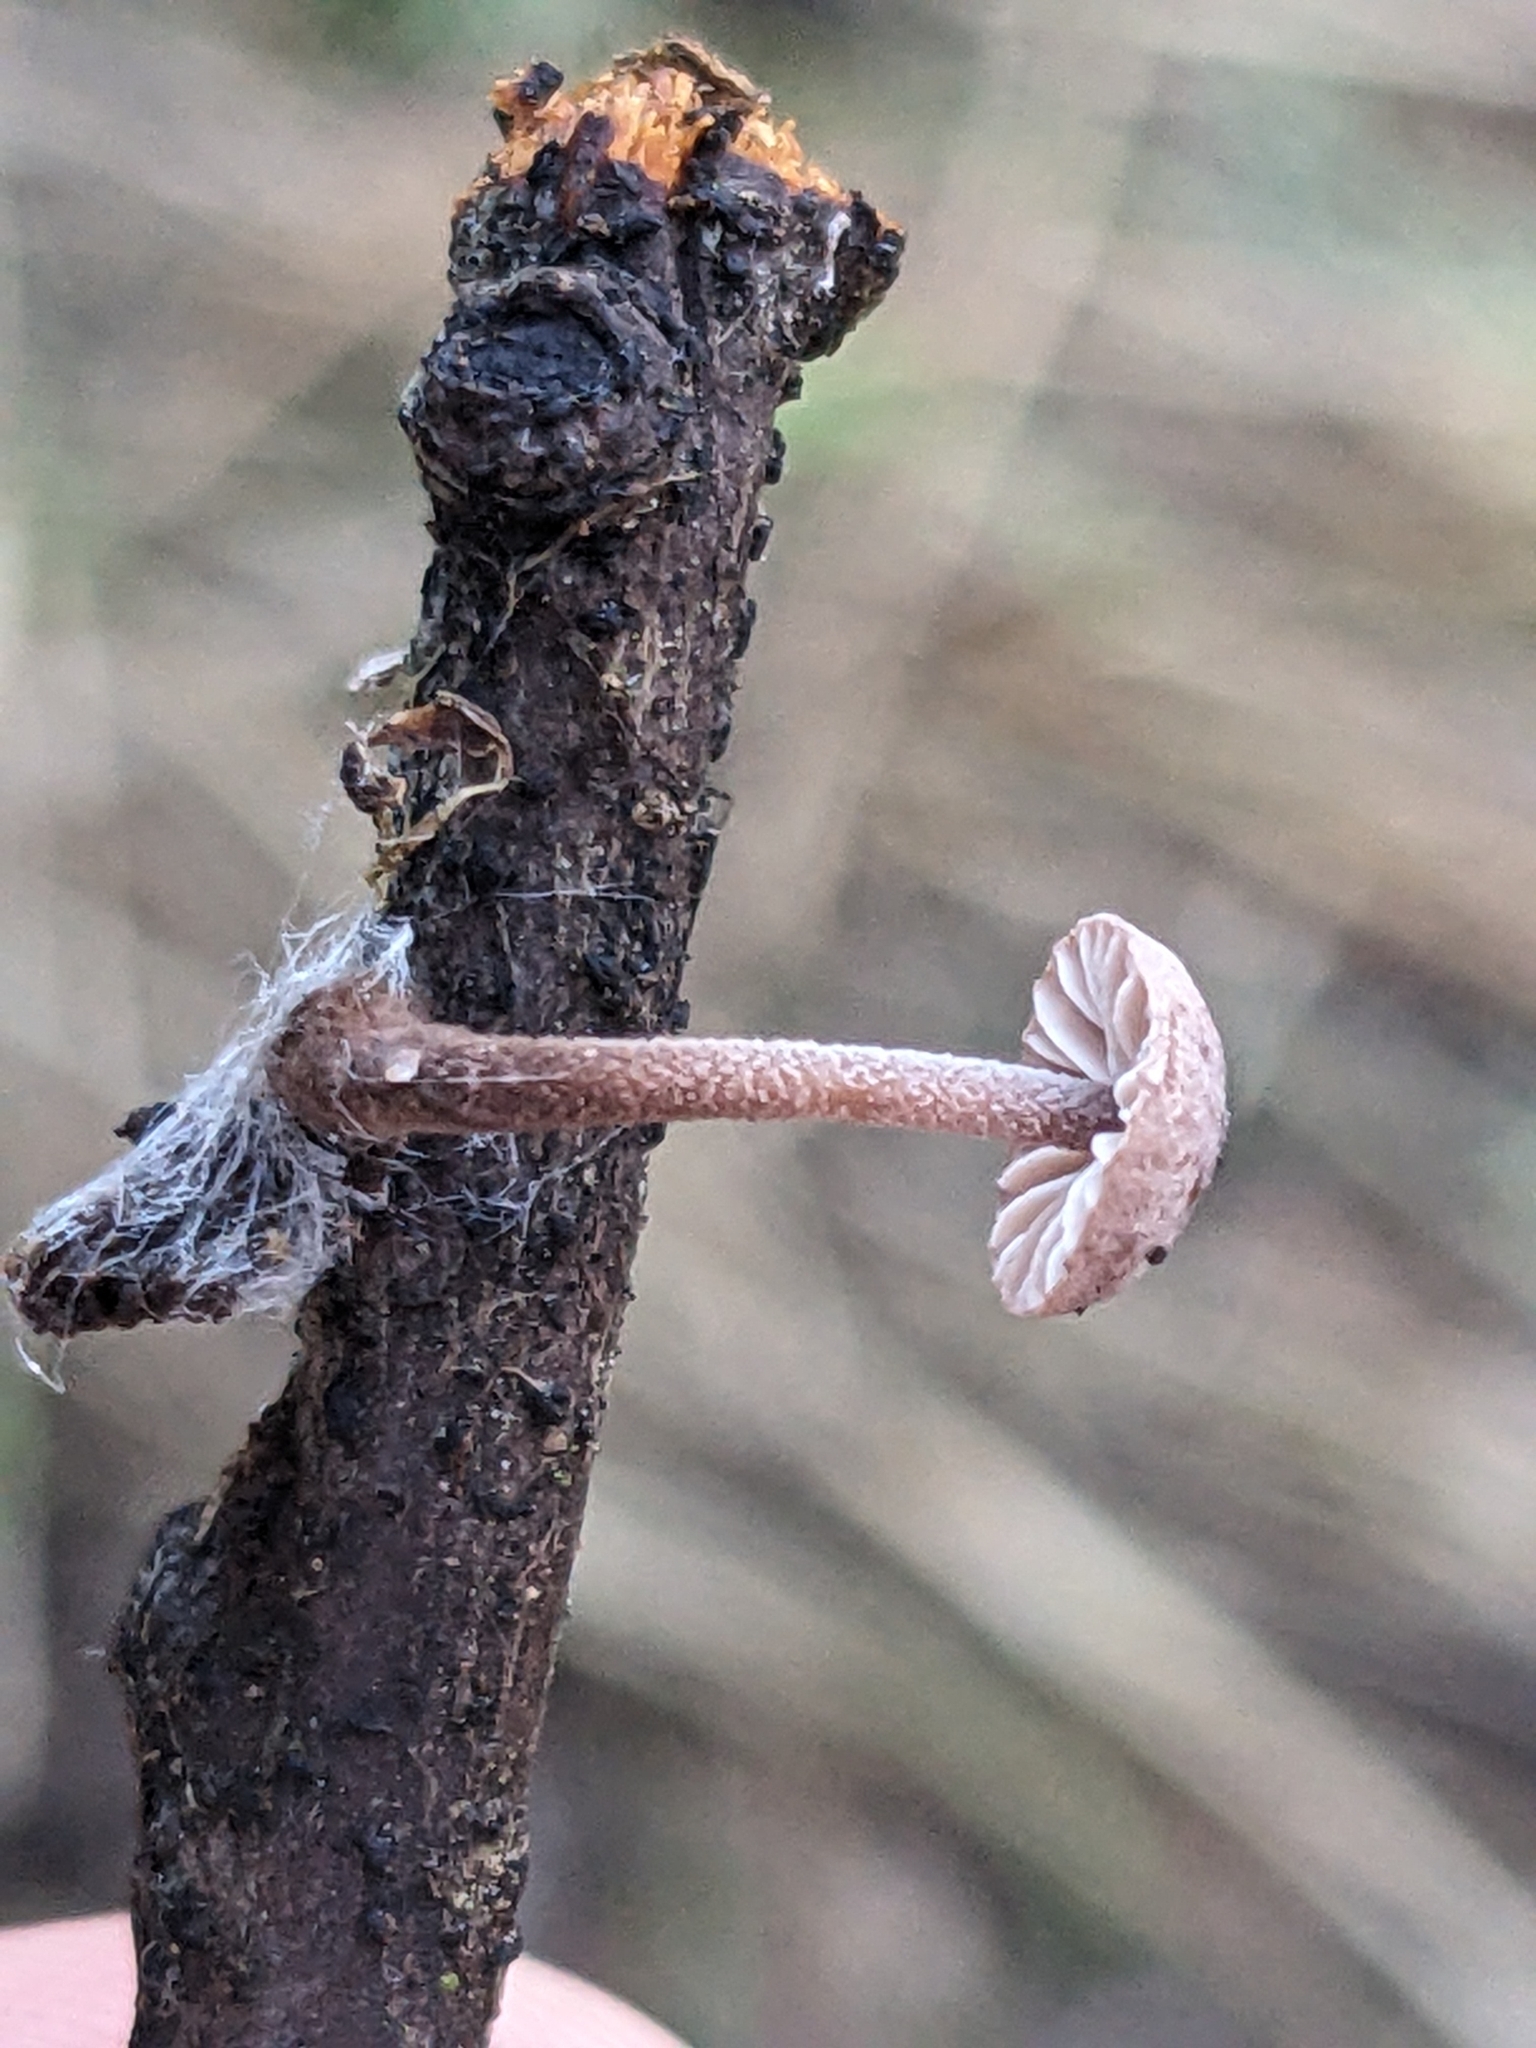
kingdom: Fungi
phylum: Basidiomycota
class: Agaricomycetes
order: Agaricales
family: Omphalotaceae
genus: Mycetinis
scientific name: Mycetinis copelandii
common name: Garlic mushroom
